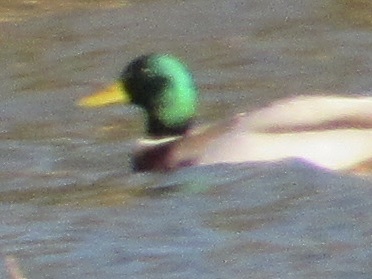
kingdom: Animalia
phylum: Chordata
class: Aves
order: Anseriformes
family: Anatidae
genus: Anas
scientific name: Anas platyrhynchos
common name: Mallard
